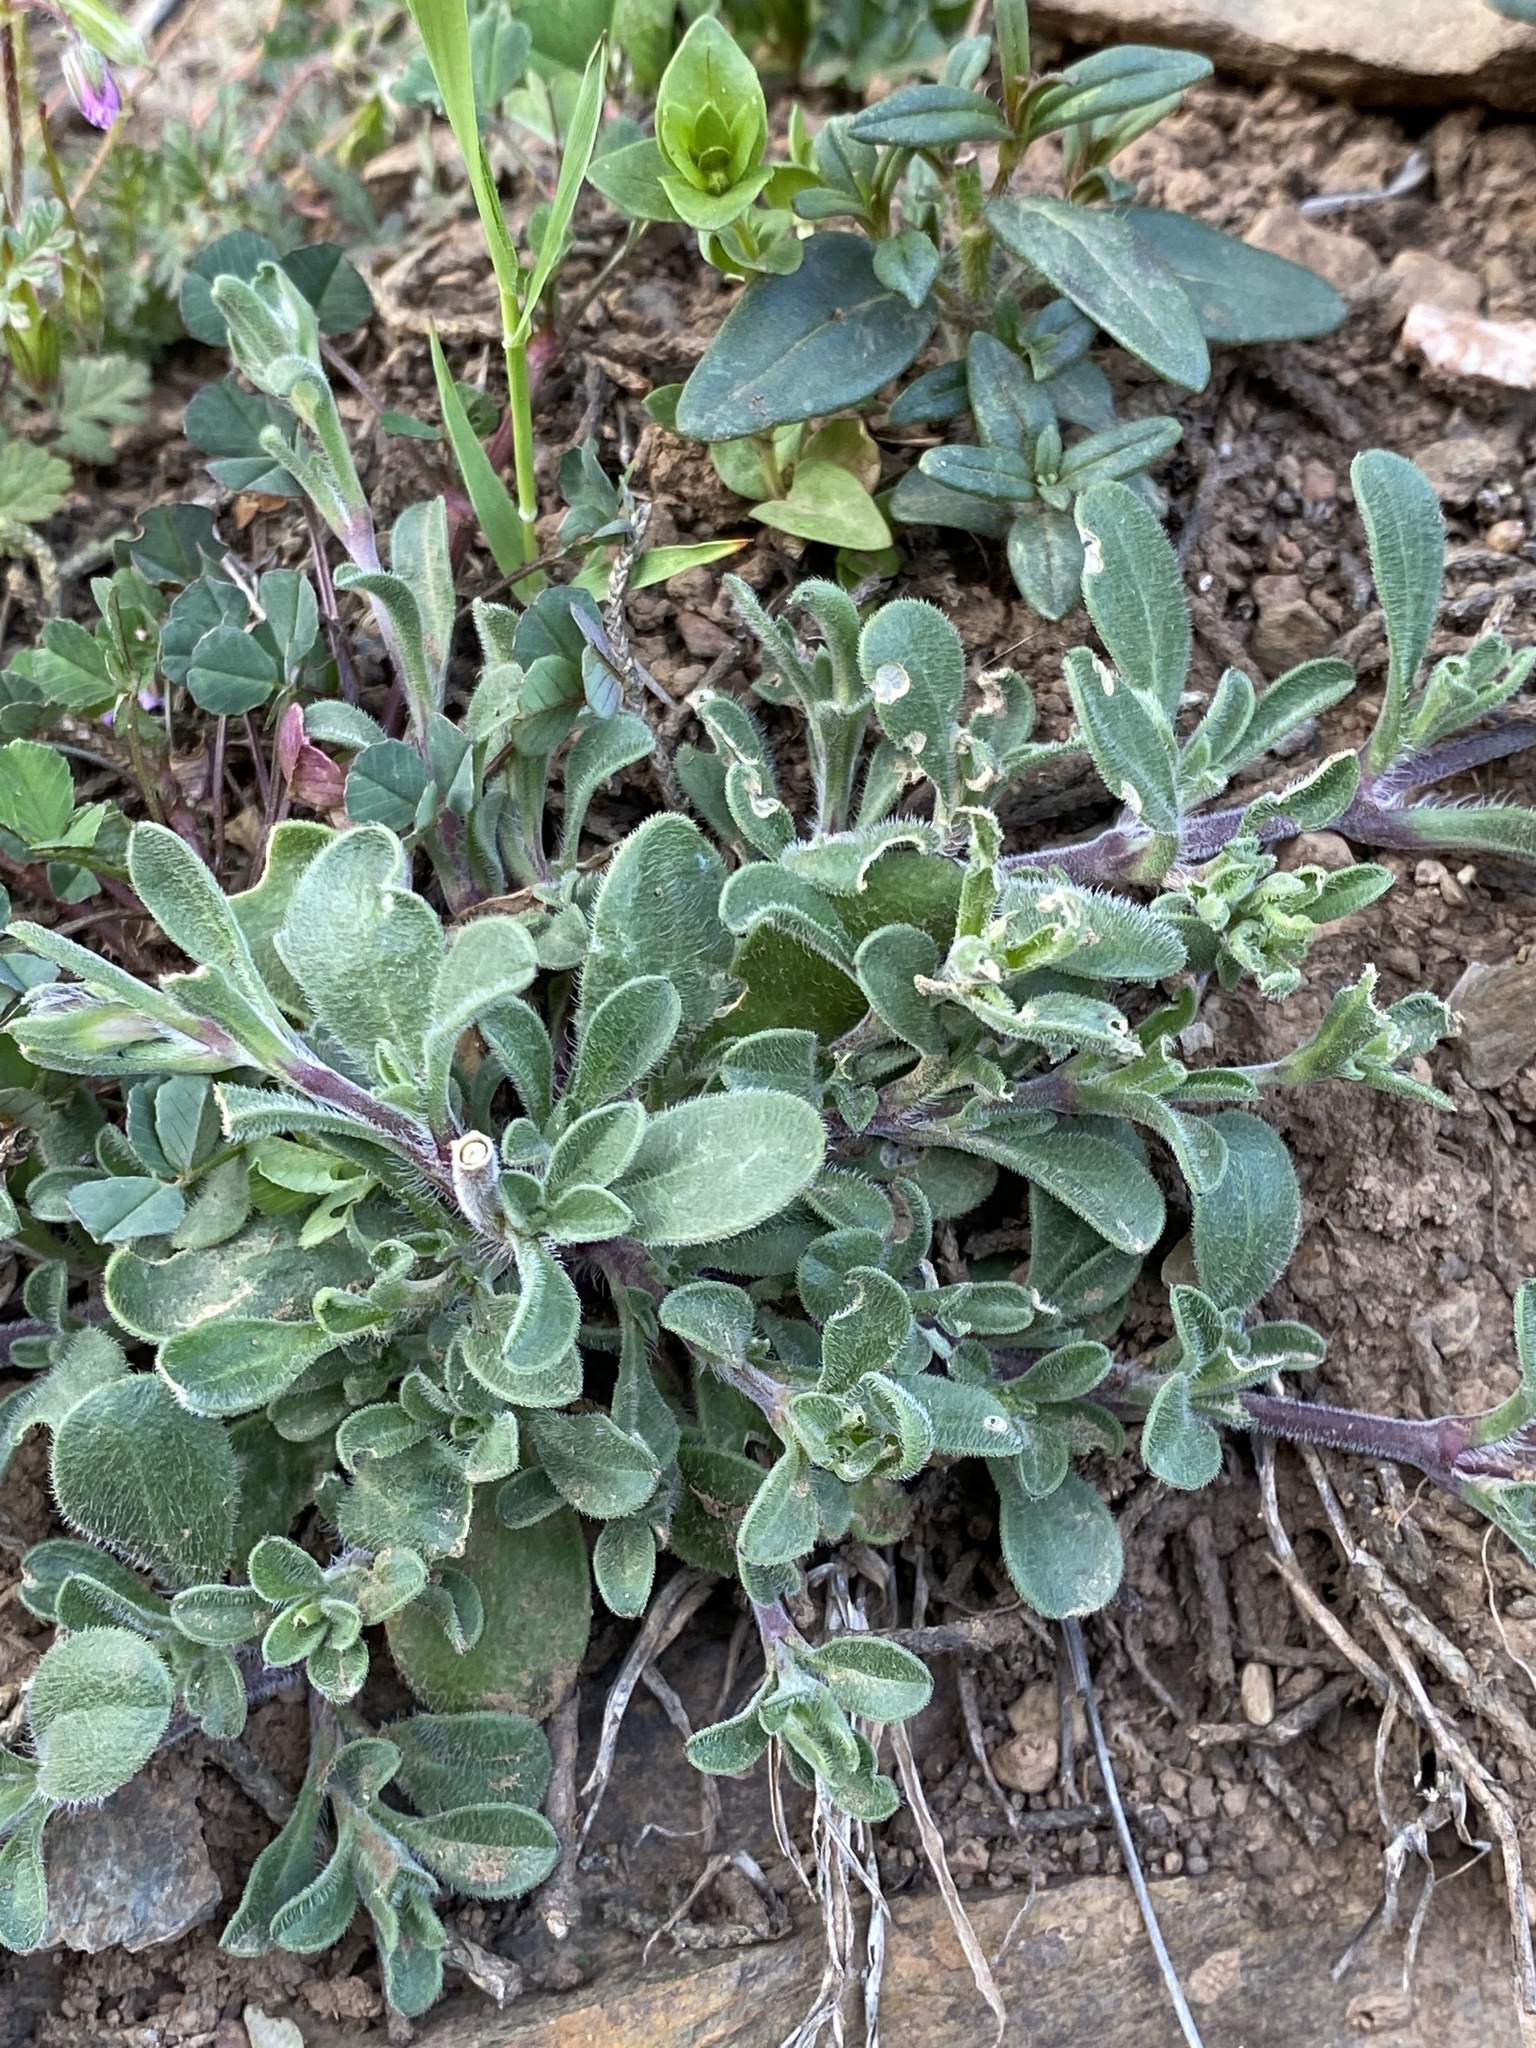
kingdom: Plantae
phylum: Tracheophyta
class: Magnoliopsida
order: Caryophyllales
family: Caryophyllaceae
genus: Silene
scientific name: Silene colorata
